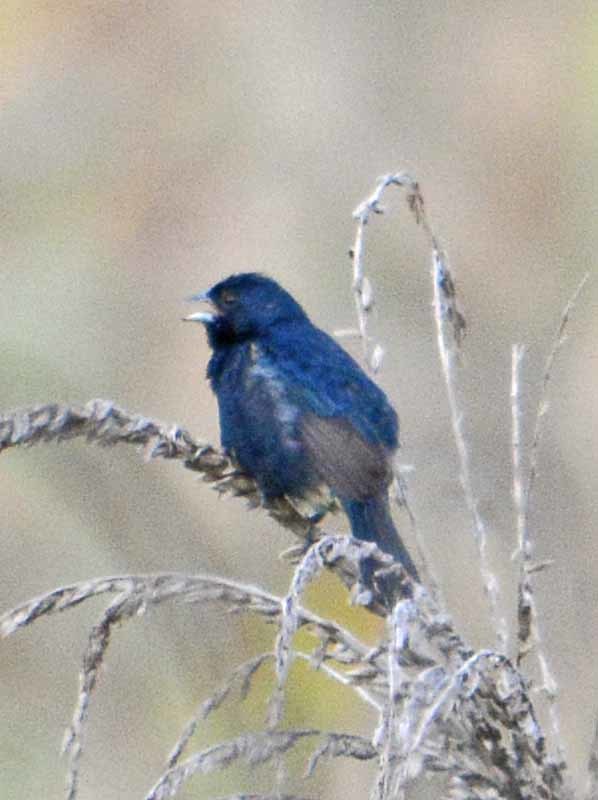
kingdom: Animalia
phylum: Chordata
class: Aves
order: Passeriformes
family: Thraupidae
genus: Volatinia
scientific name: Volatinia jacarina
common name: Blue-black grassquit
